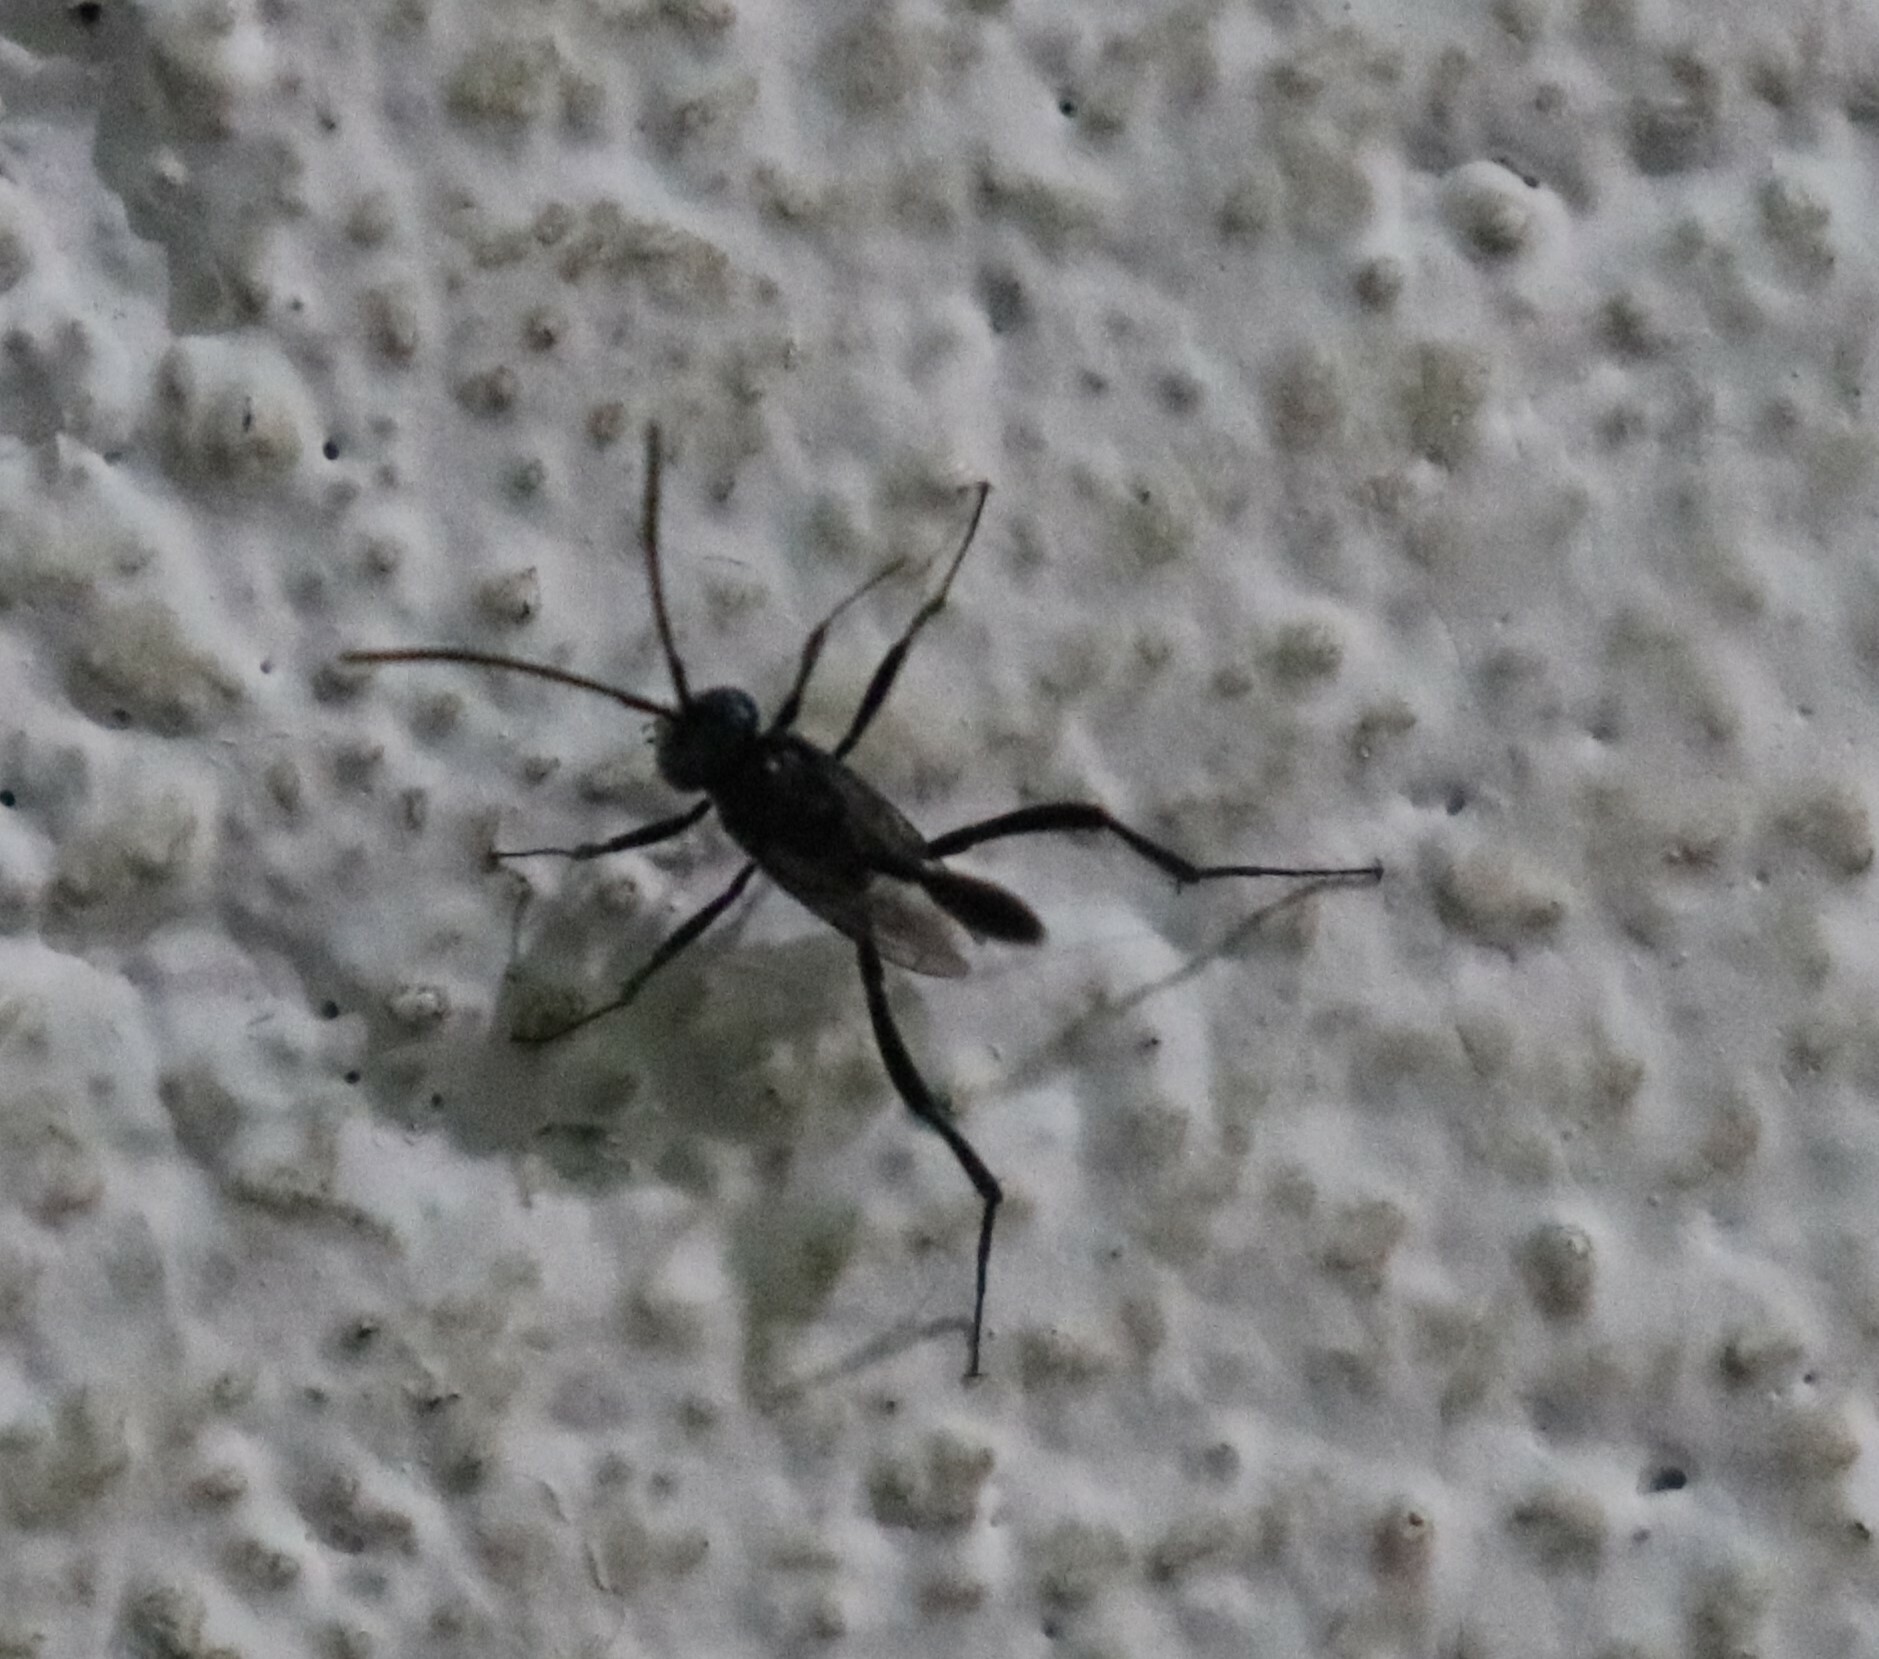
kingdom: Animalia
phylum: Arthropoda
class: Insecta
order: Hymenoptera
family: Evaniidae
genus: Evania
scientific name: Evania appendigaster
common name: Ensign wasp
